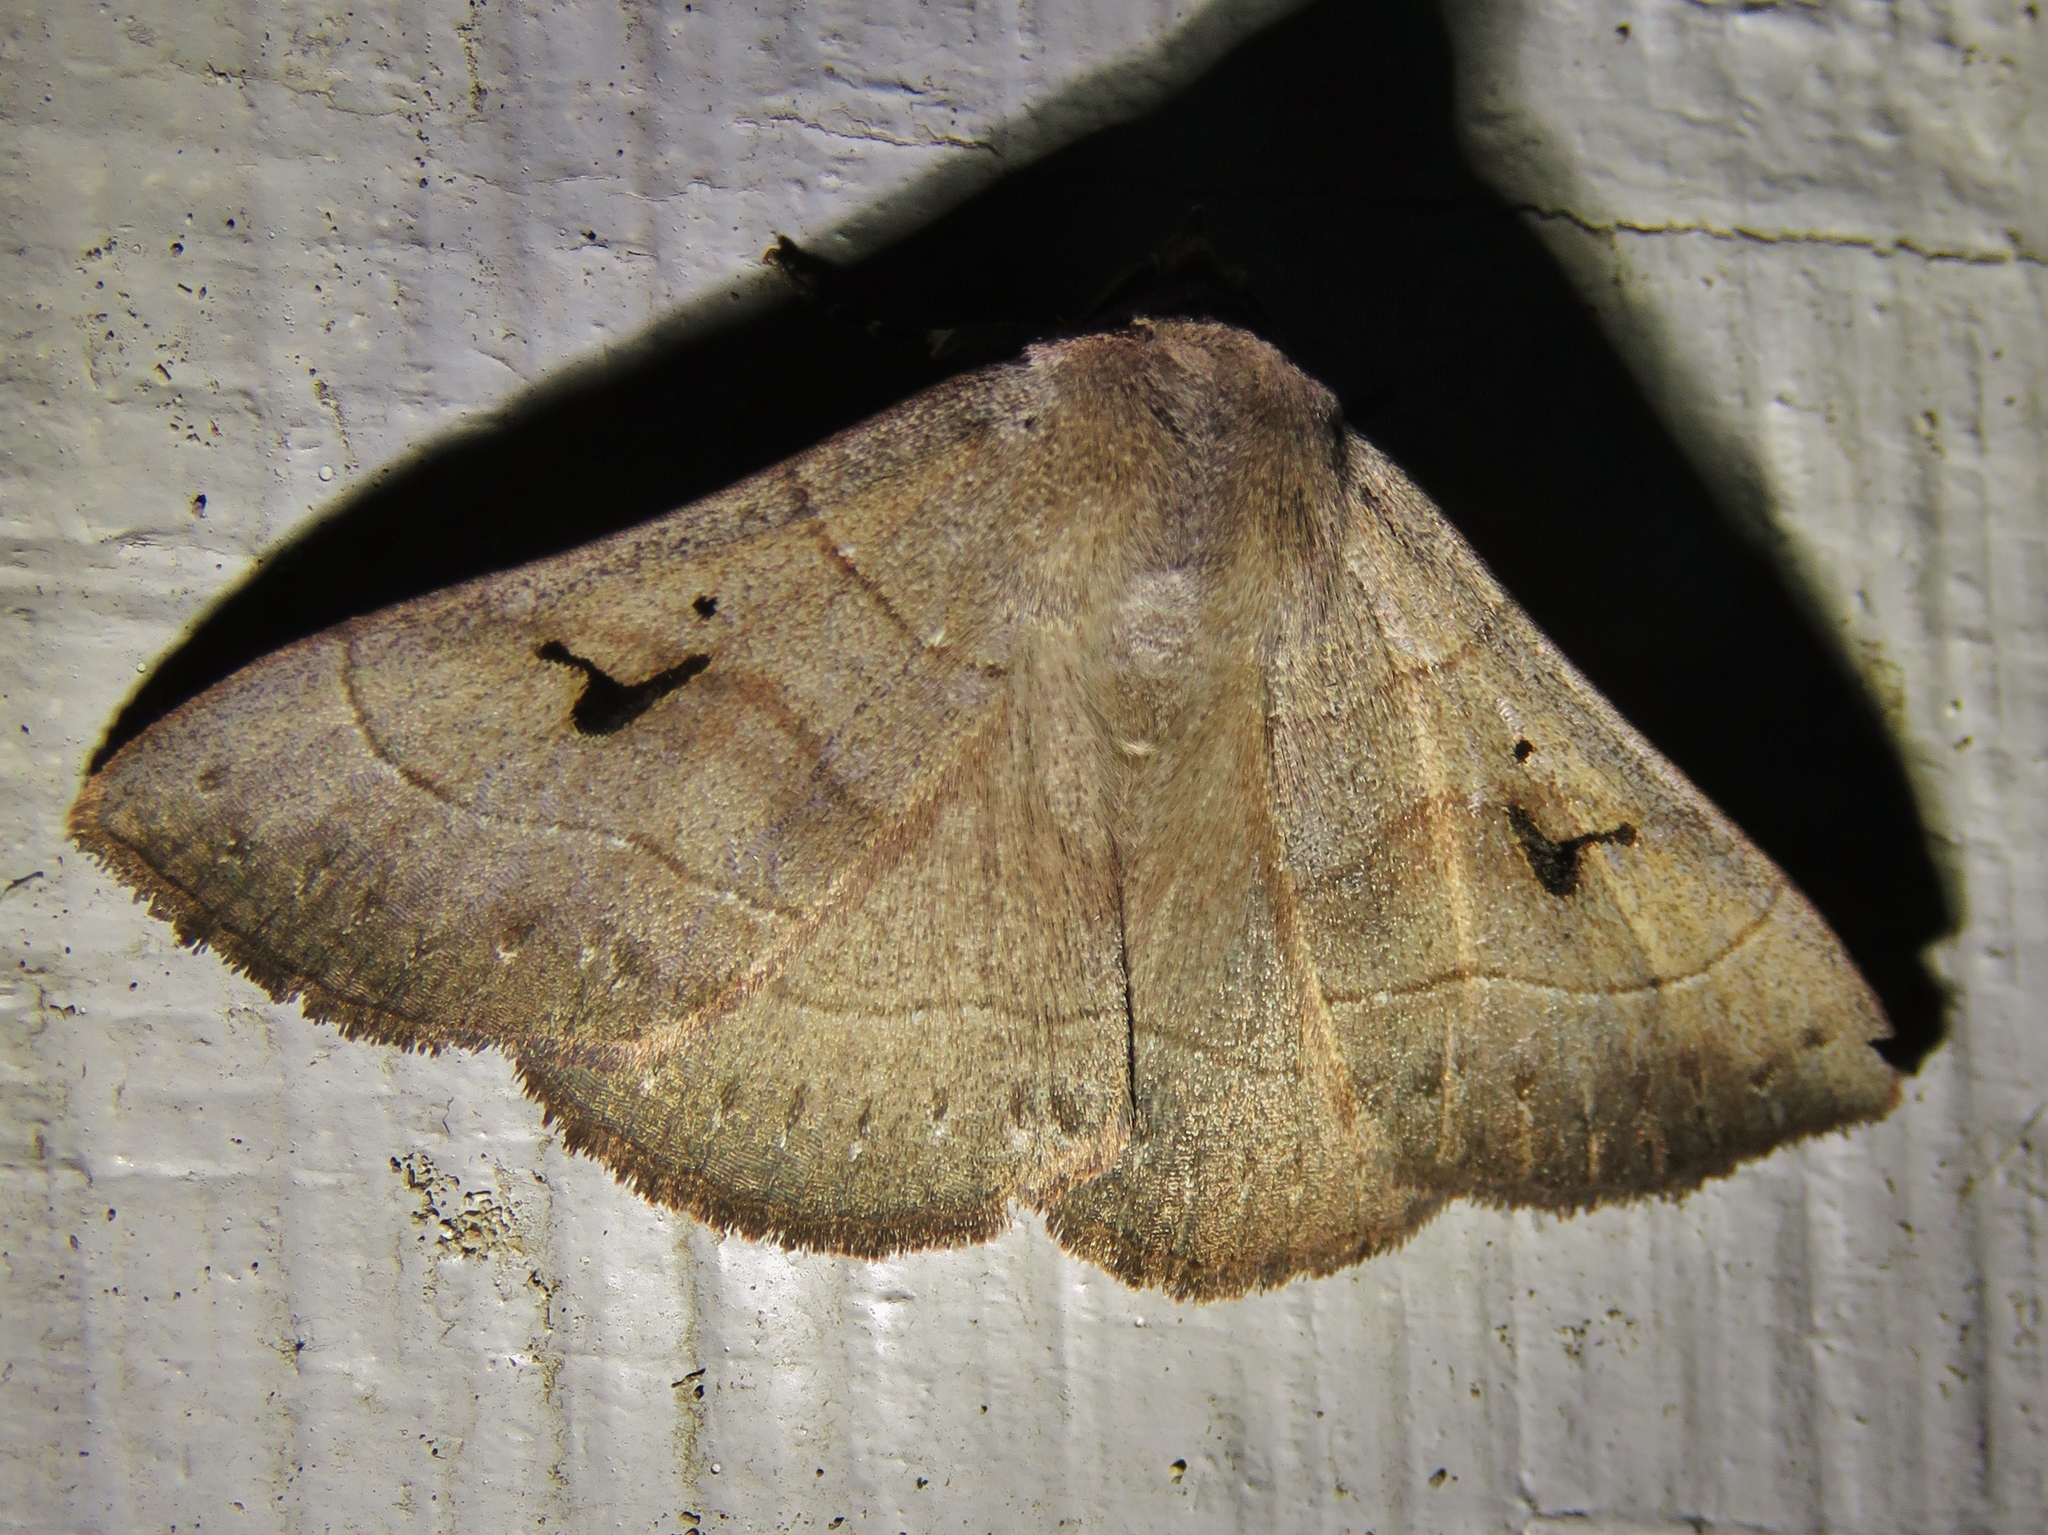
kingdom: Animalia
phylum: Arthropoda
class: Insecta
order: Lepidoptera
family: Erebidae
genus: Panopoda
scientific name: Panopoda carneicosta
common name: Brown panopoda moth
